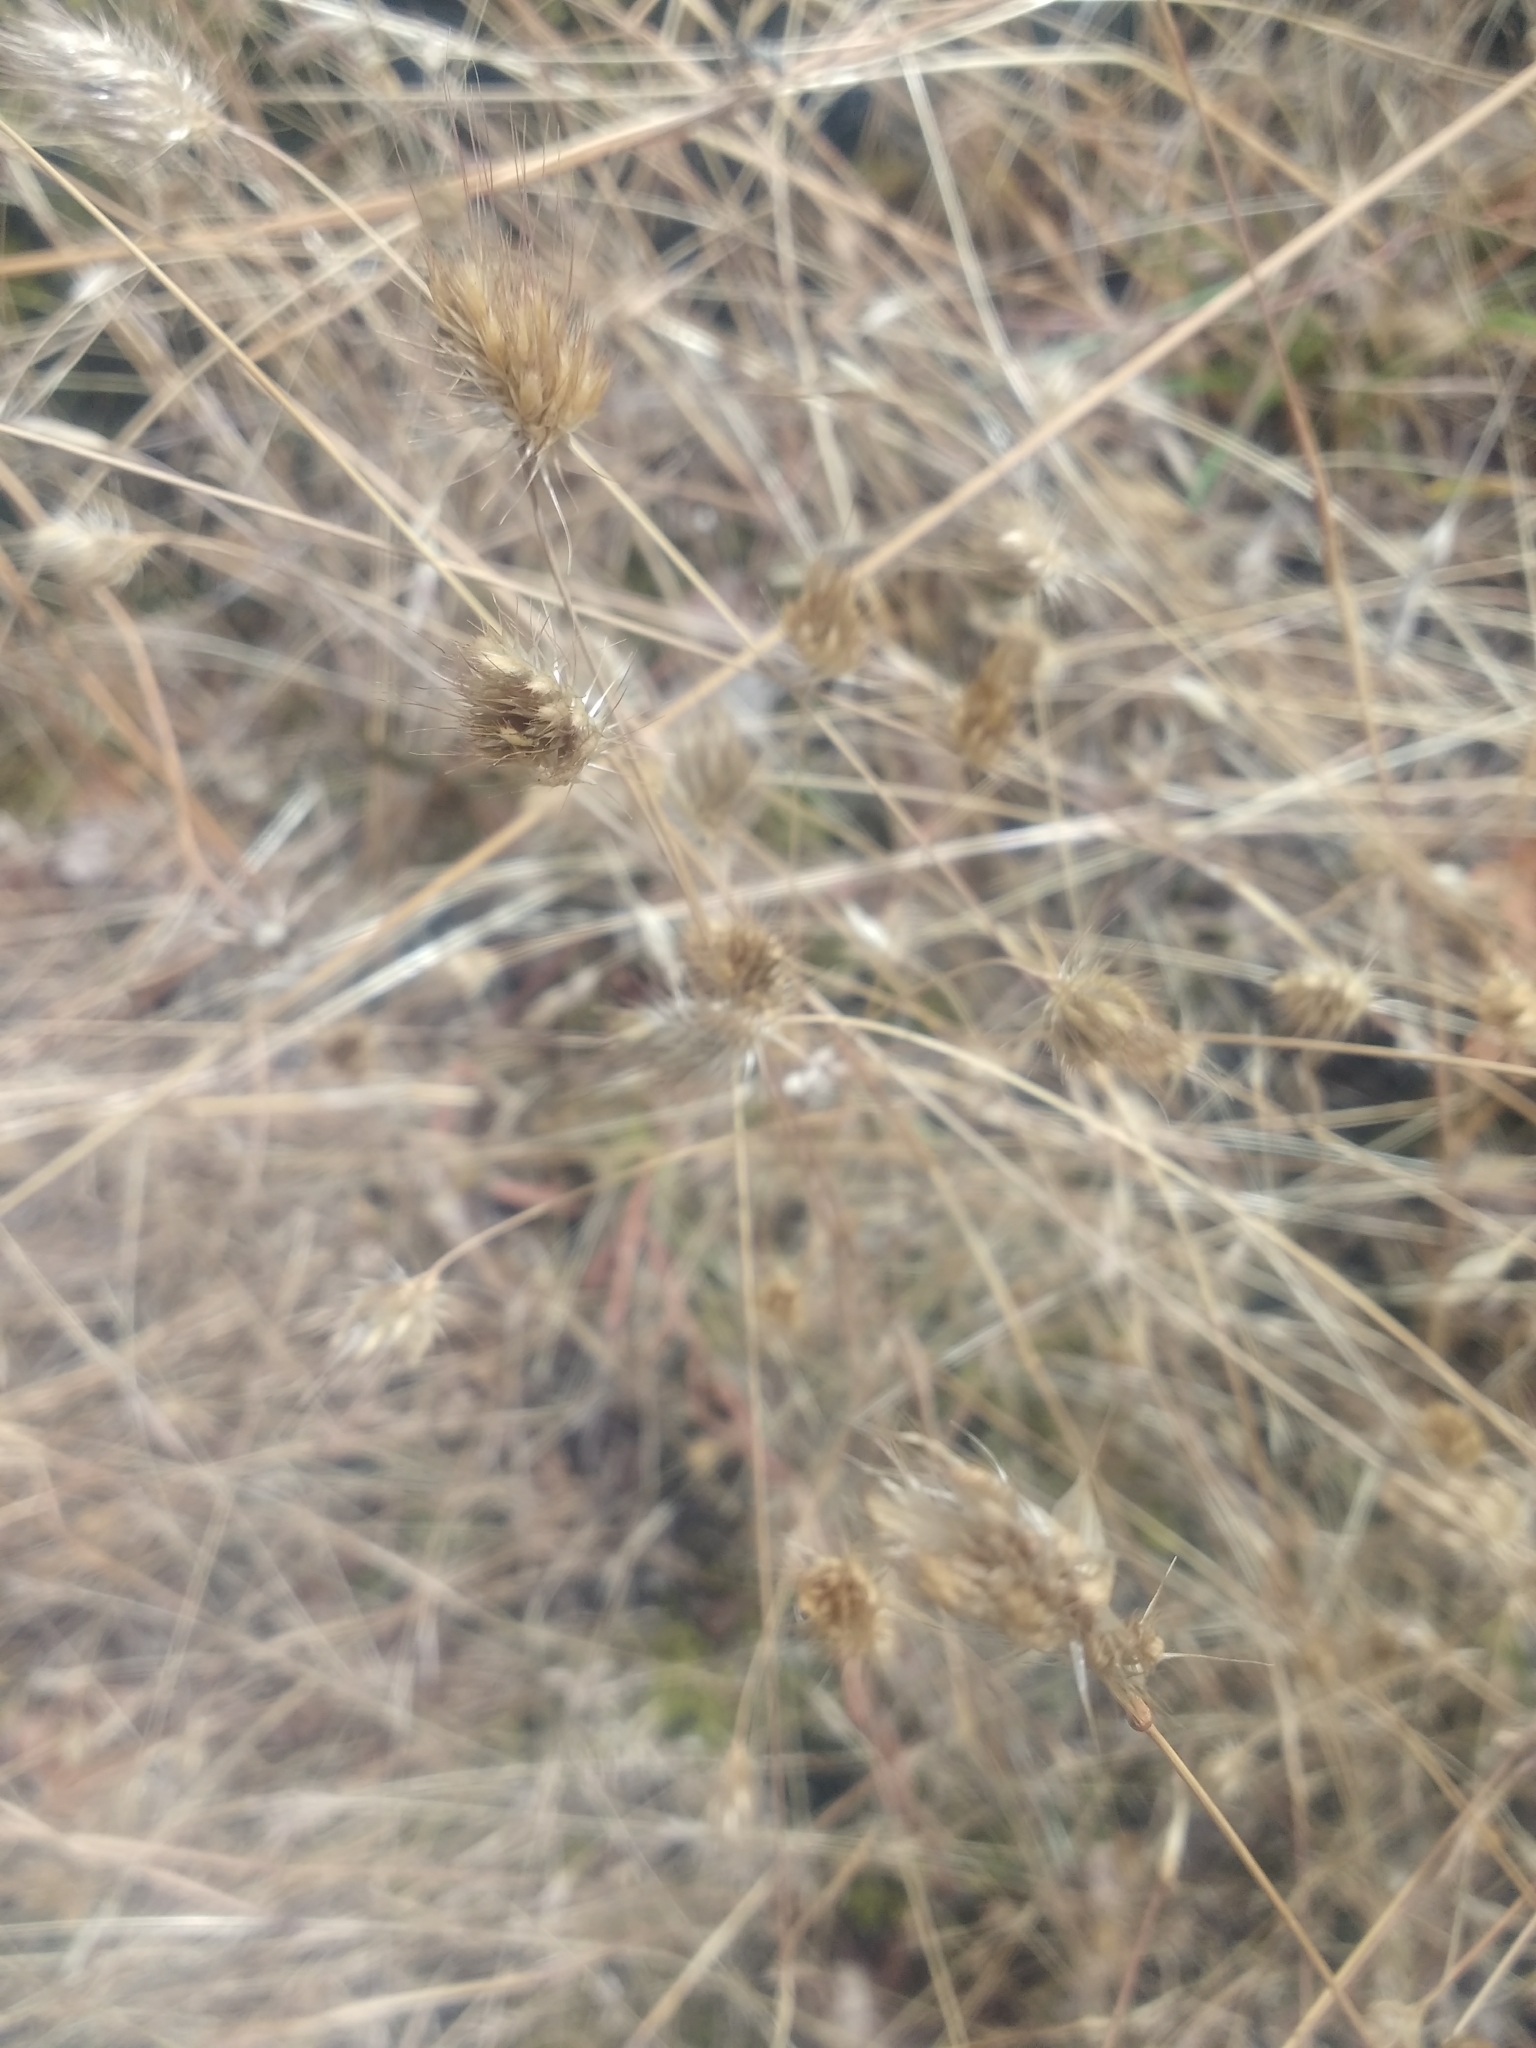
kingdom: Plantae
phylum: Tracheophyta
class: Liliopsida
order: Poales
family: Poaceae
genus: Cynosurus
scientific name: Cynosurus echinatus
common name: Rough dog's-tail
